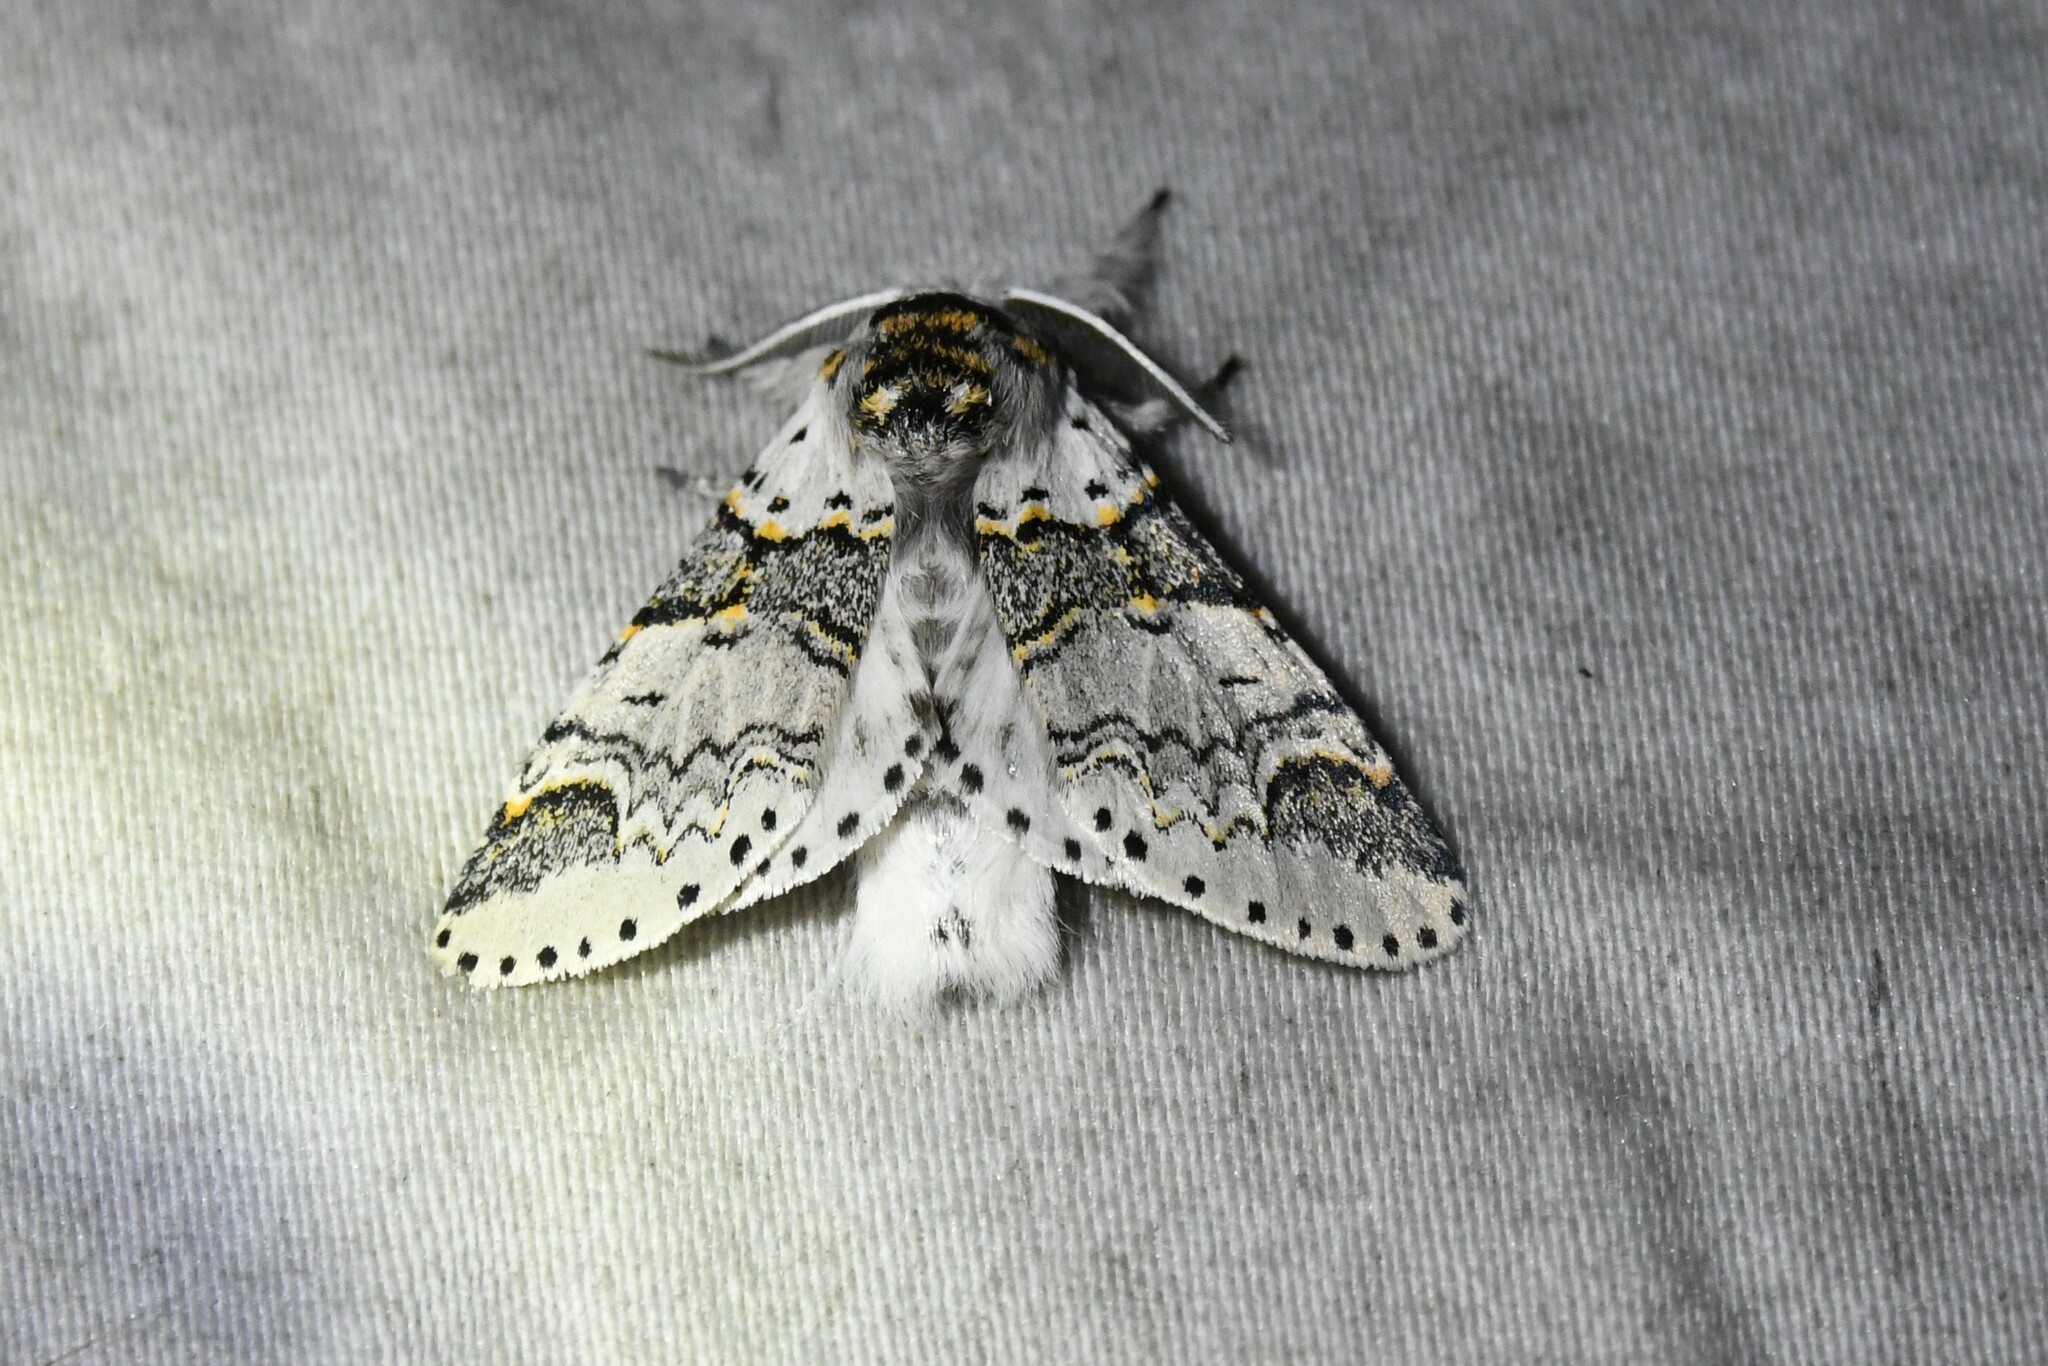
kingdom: Animalia
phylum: Arthropoda
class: Insecta
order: Lepidoptera
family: Notodontidae
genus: Furcula
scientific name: Furcula occidentalis
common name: Western furcula moth
